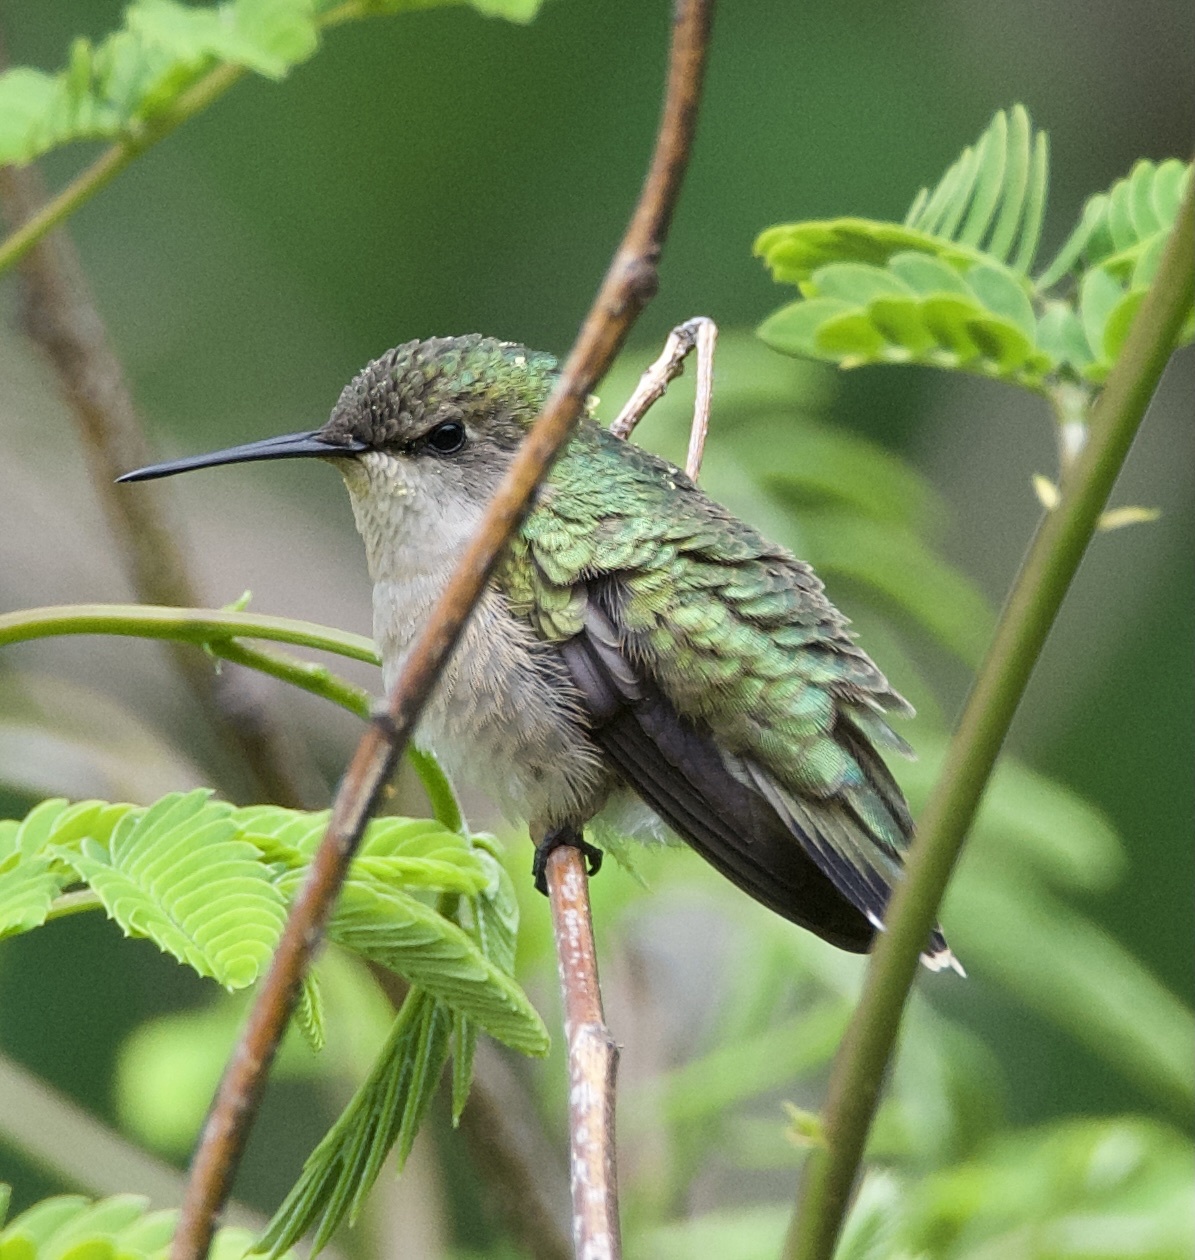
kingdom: Animalia
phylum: Chordata
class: Aves
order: Apodiformes
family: Trochilidae
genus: Archilochus
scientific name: Archilochus colubris
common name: Ruby-throated hummingbird
